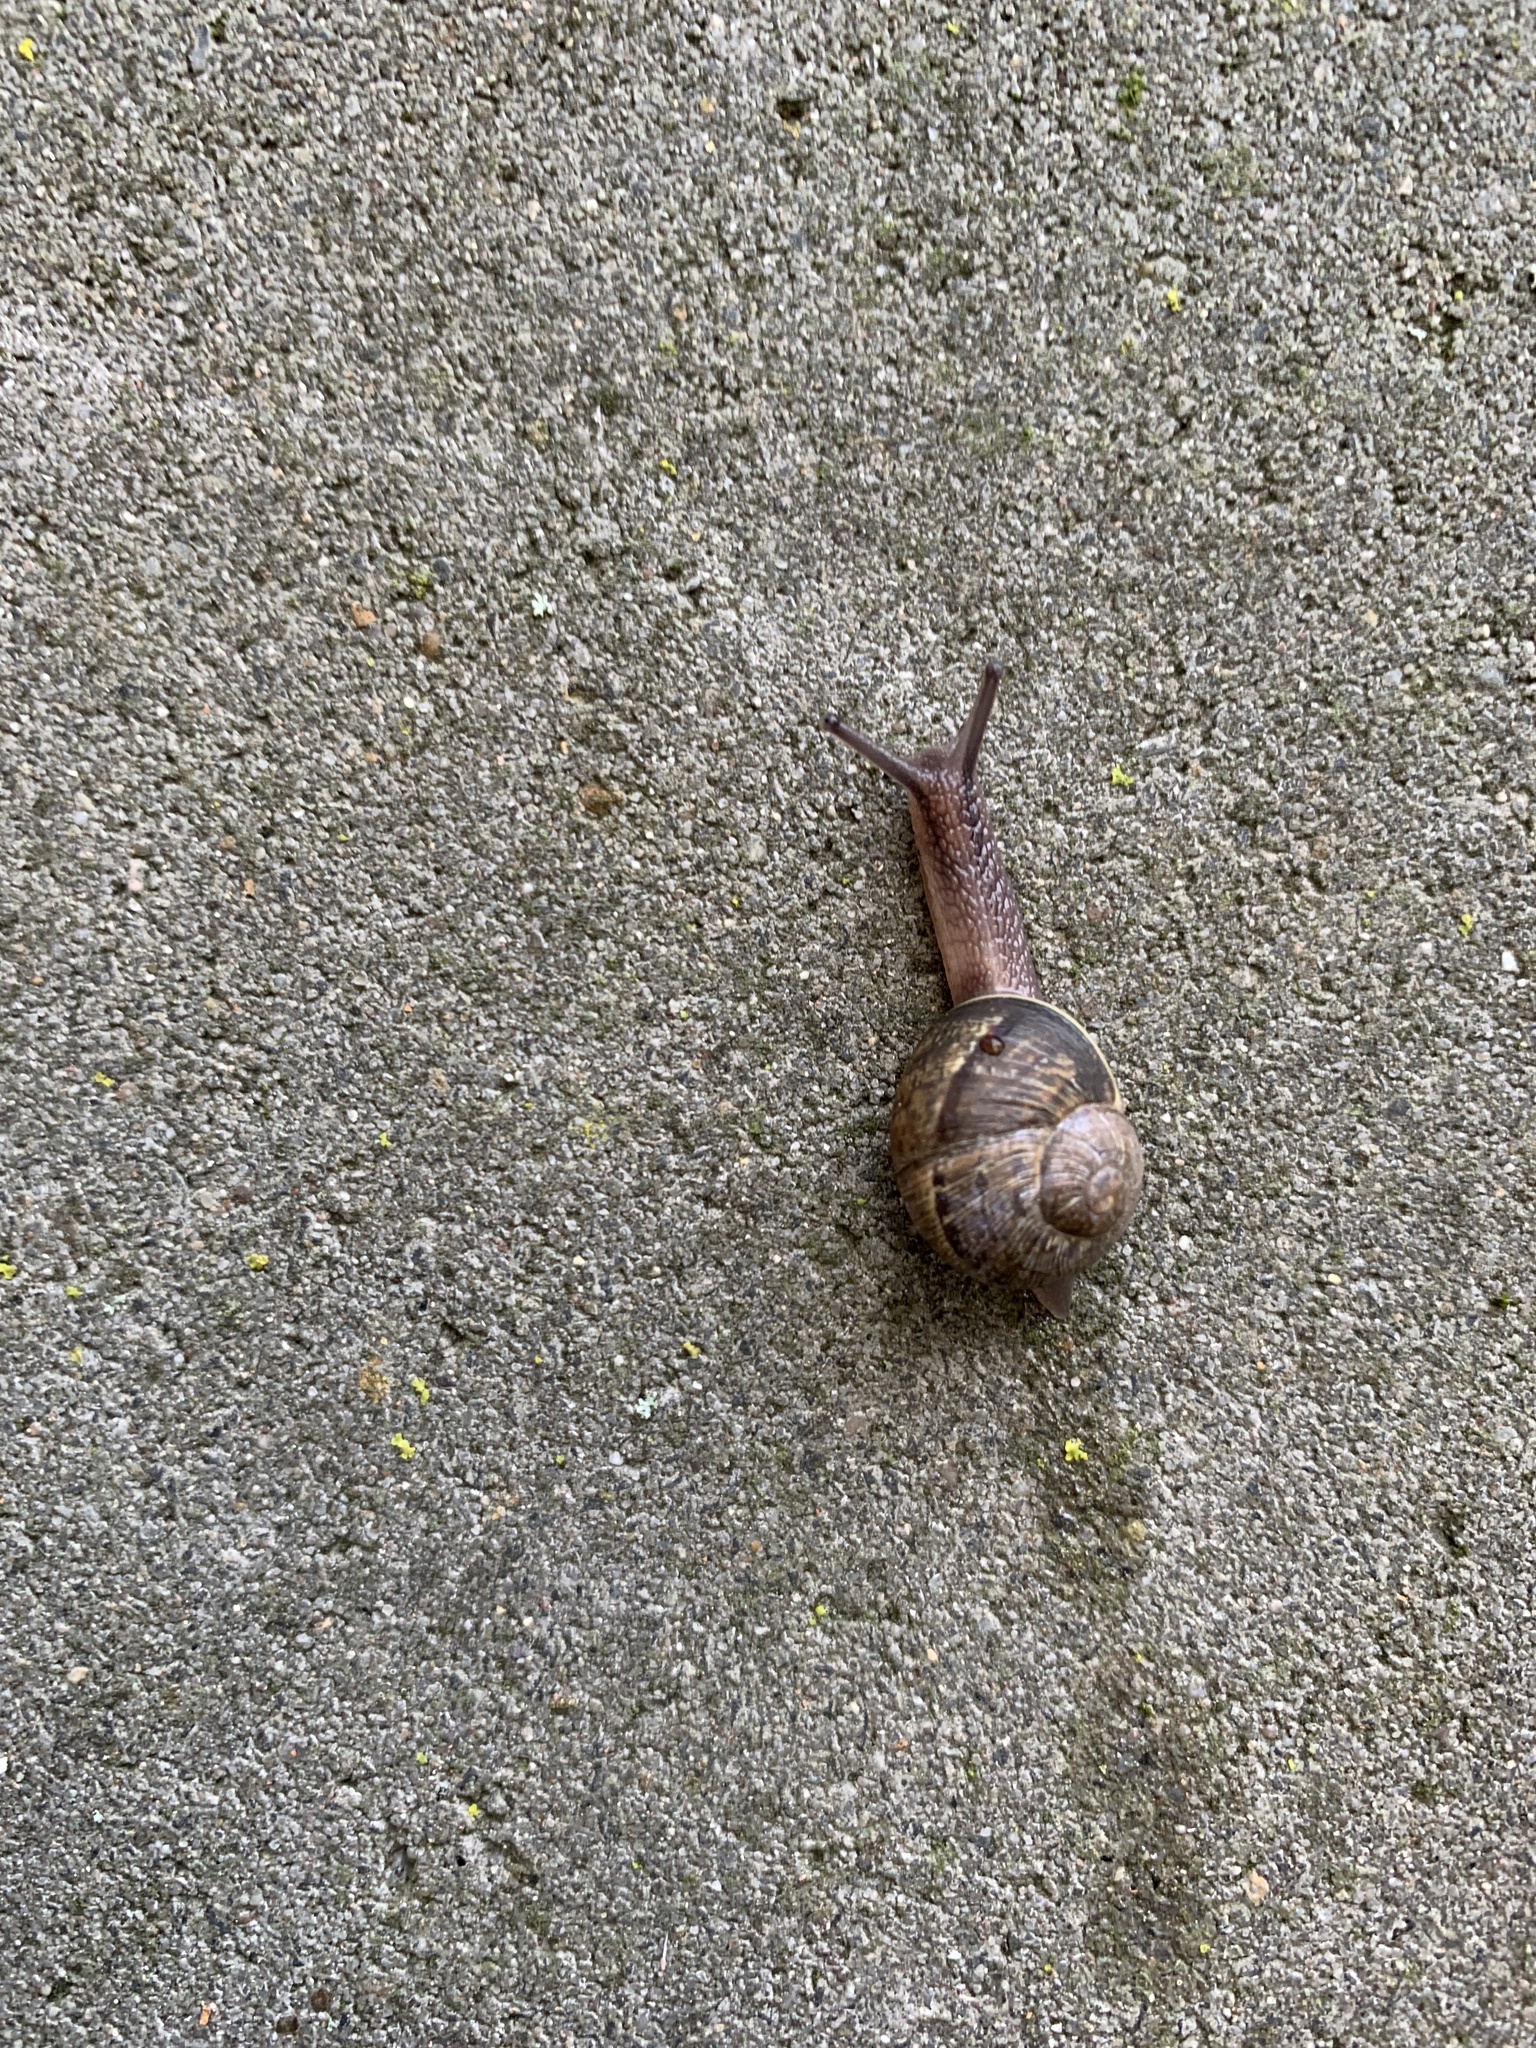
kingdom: Animalia
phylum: Mollusca
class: Gastropoda
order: Stylommatophora
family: Helicidae
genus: Cornu
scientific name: Cornu aspersum
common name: Brown garden snail
